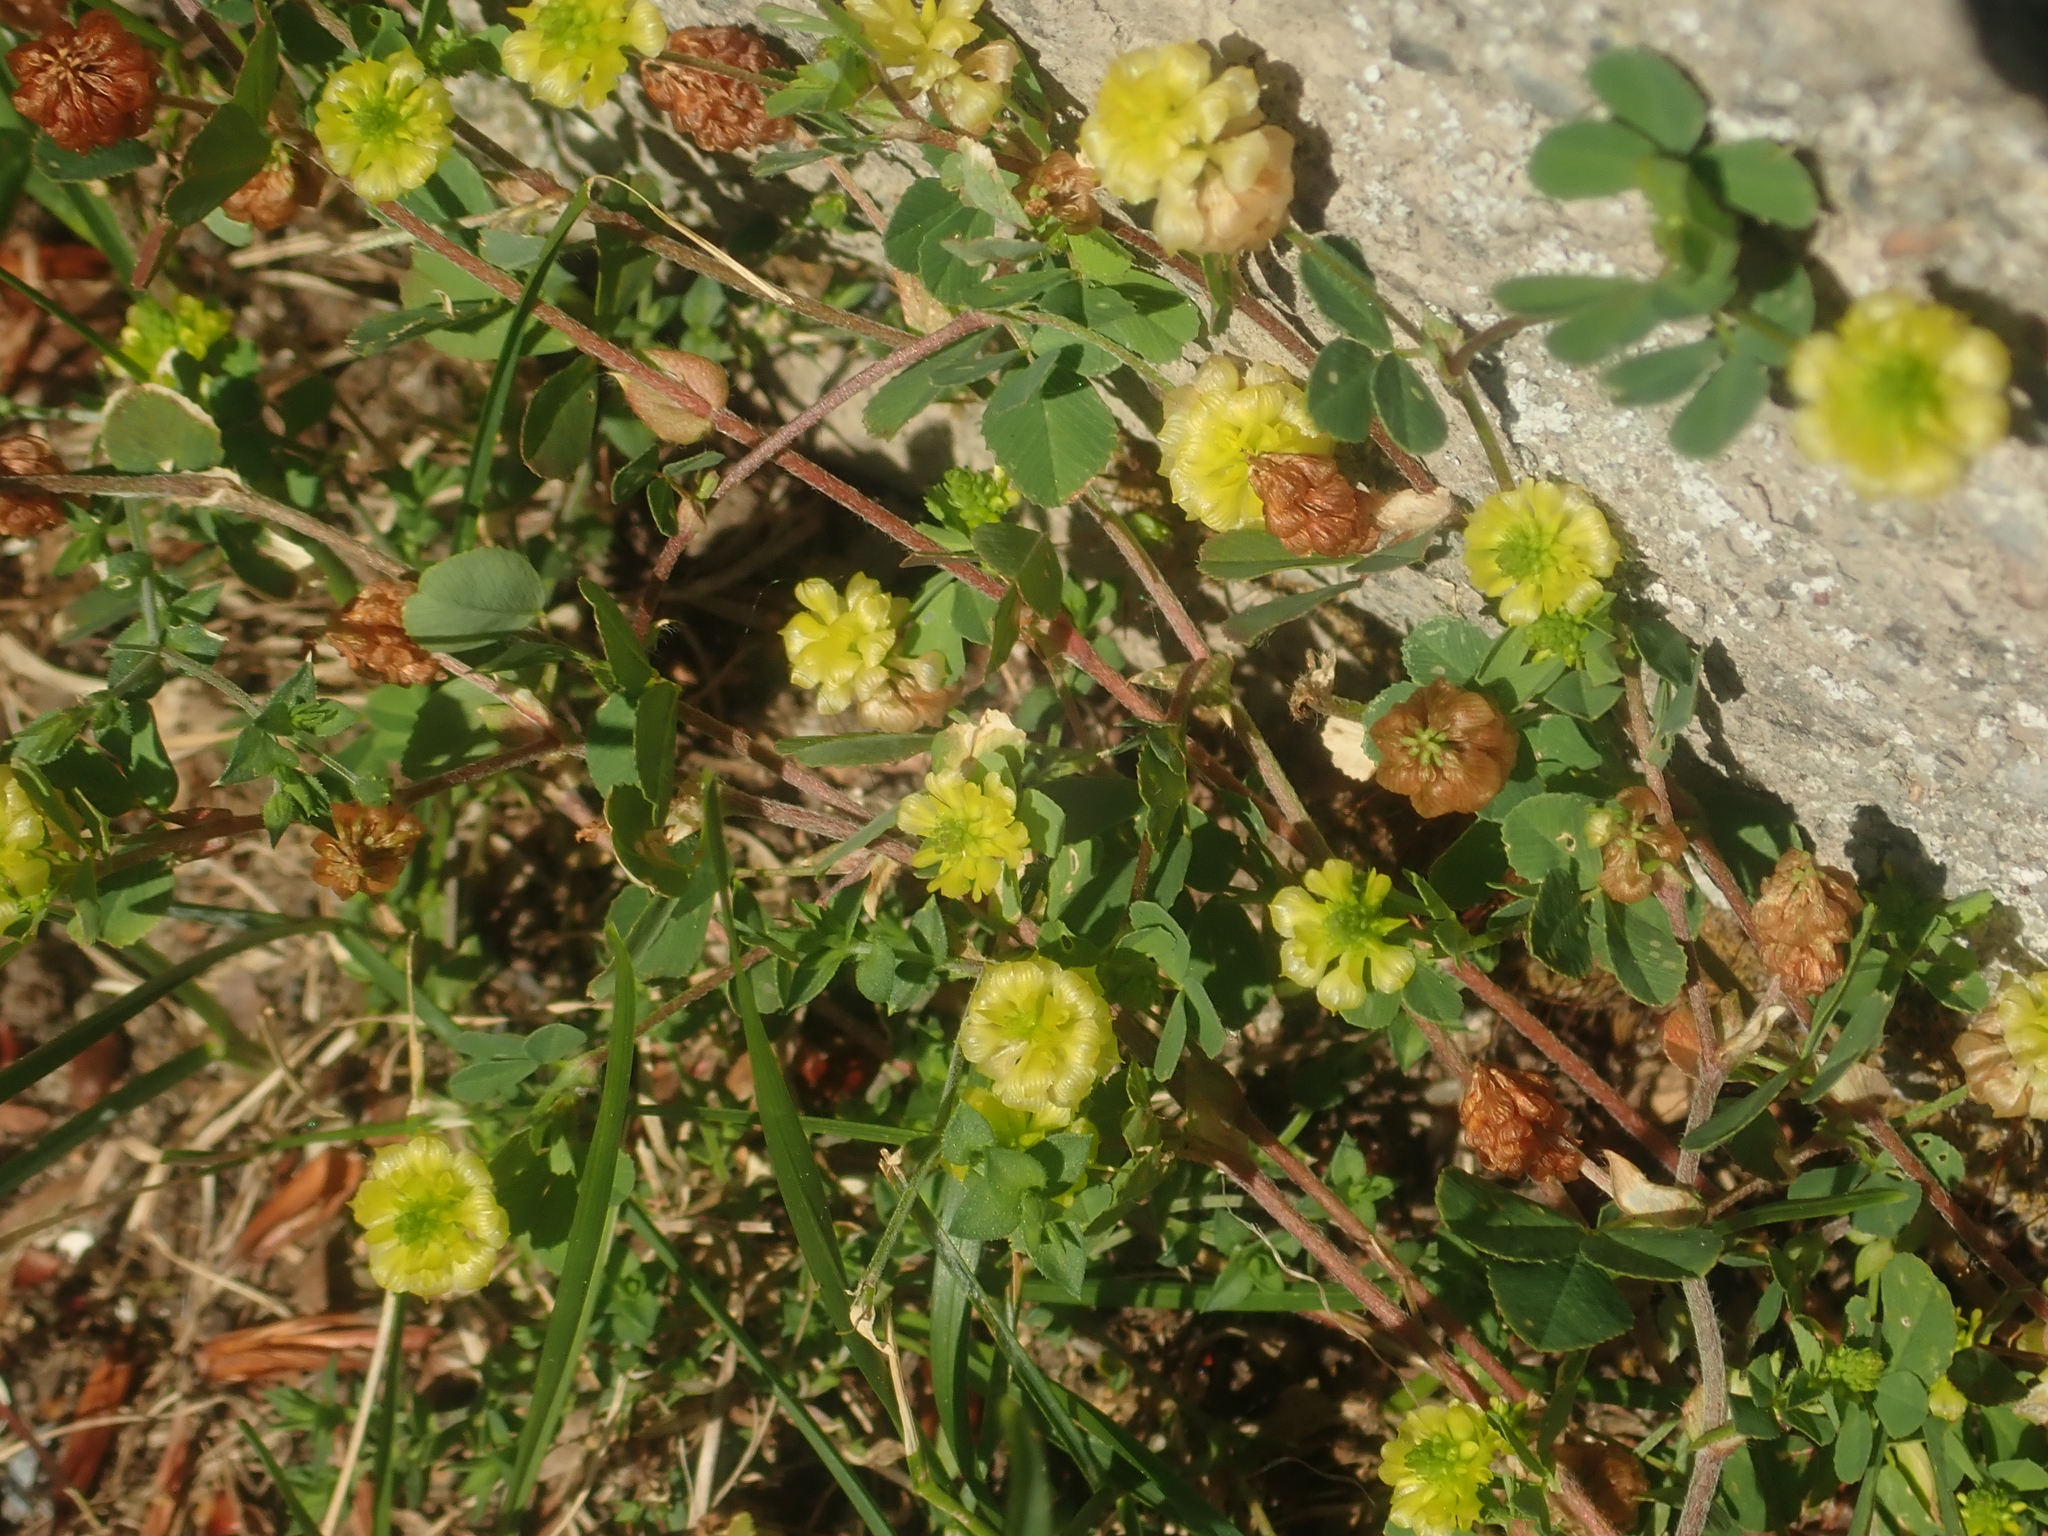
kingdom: Plantae
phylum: Tracheophyta
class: Magnoliopsida
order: Fabales
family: Fabaceae
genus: Trifolium
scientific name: Trifolium campestre
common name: Field clover
